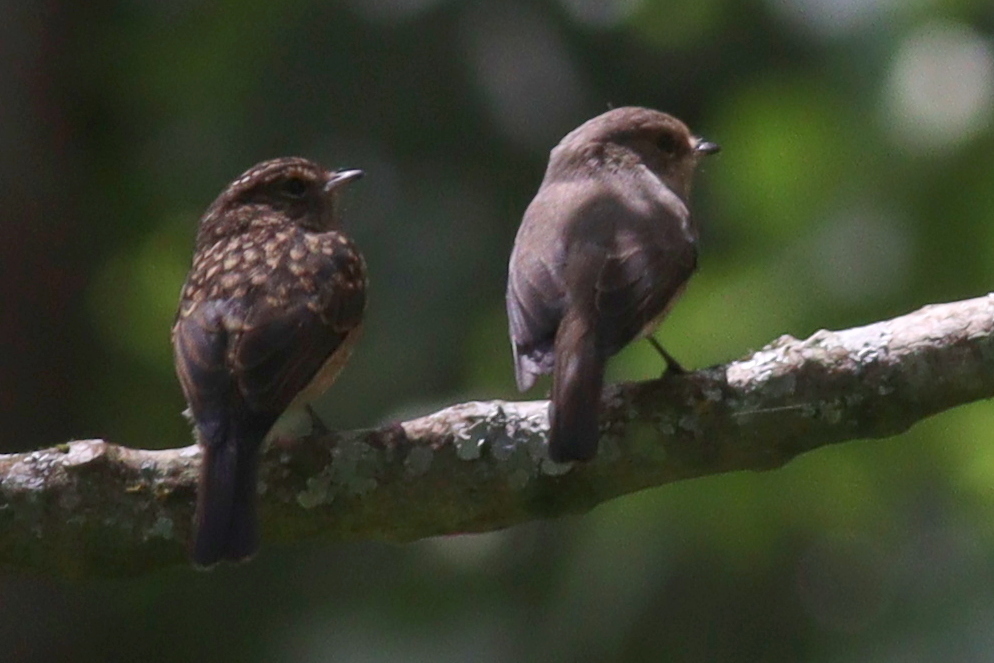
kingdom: Animalia
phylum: Chordata
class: Aves
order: Passeriformes
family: Muscicapidae
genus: Muscicapa
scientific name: Muscicapa adusta
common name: African dusky flycatcher
